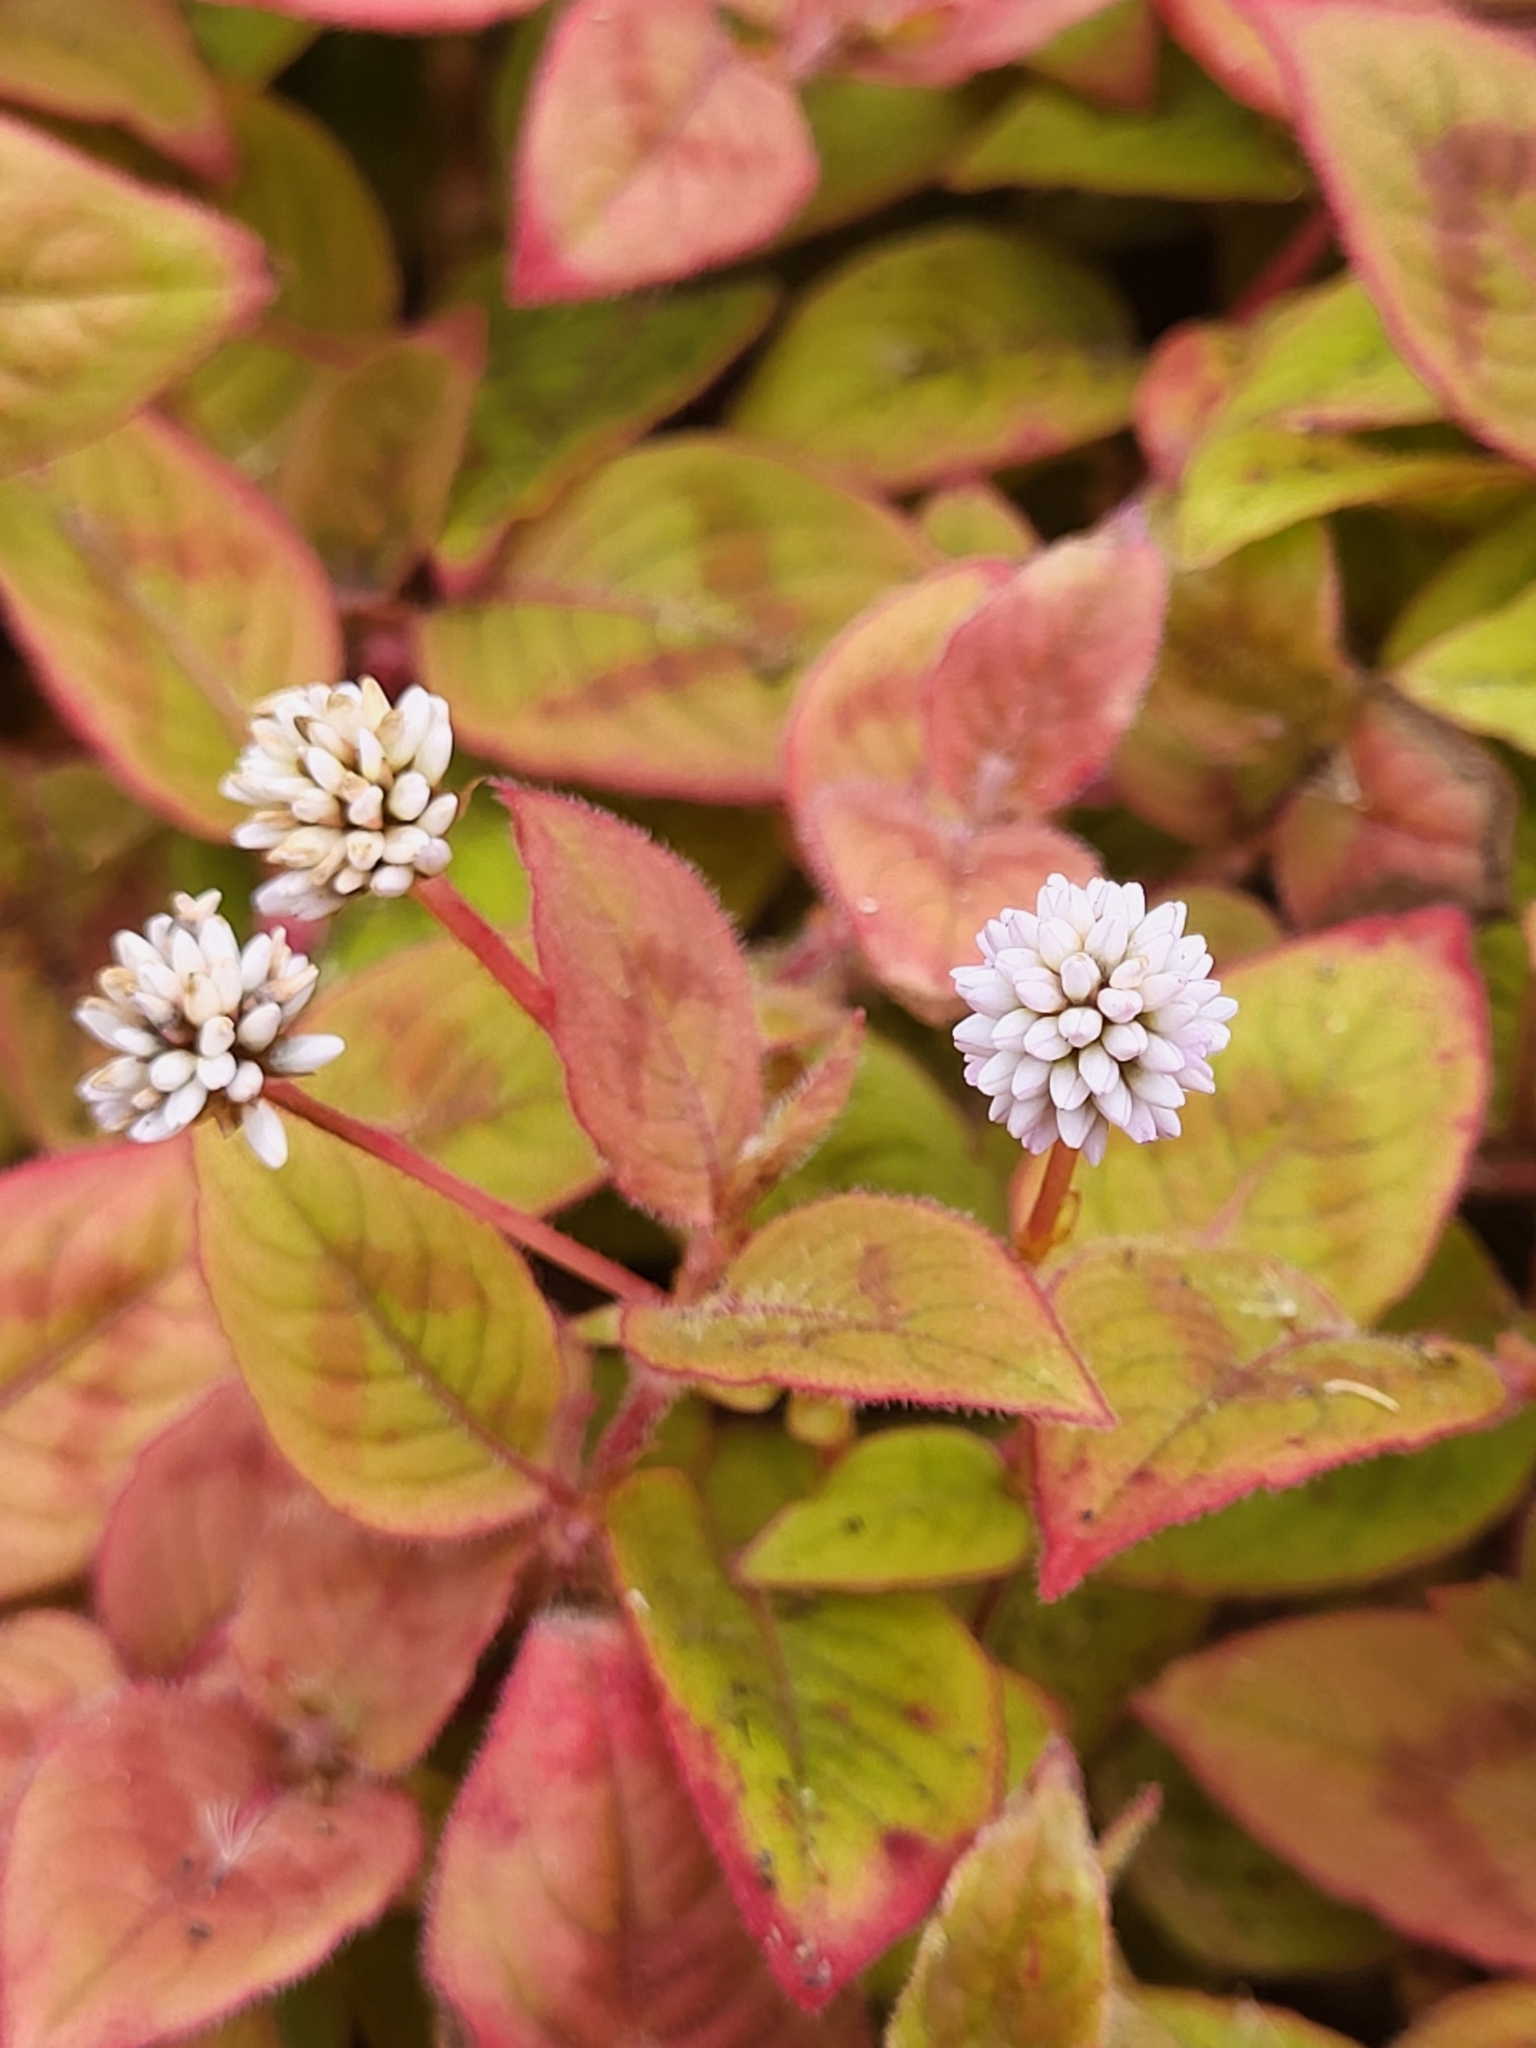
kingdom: Plantae
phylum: Tracheophyta
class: Magnoliopsida
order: Caryophyllales
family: Polygonaceae
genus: Persicaria
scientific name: Persicaria capitata
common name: Pinkhead smartweed
